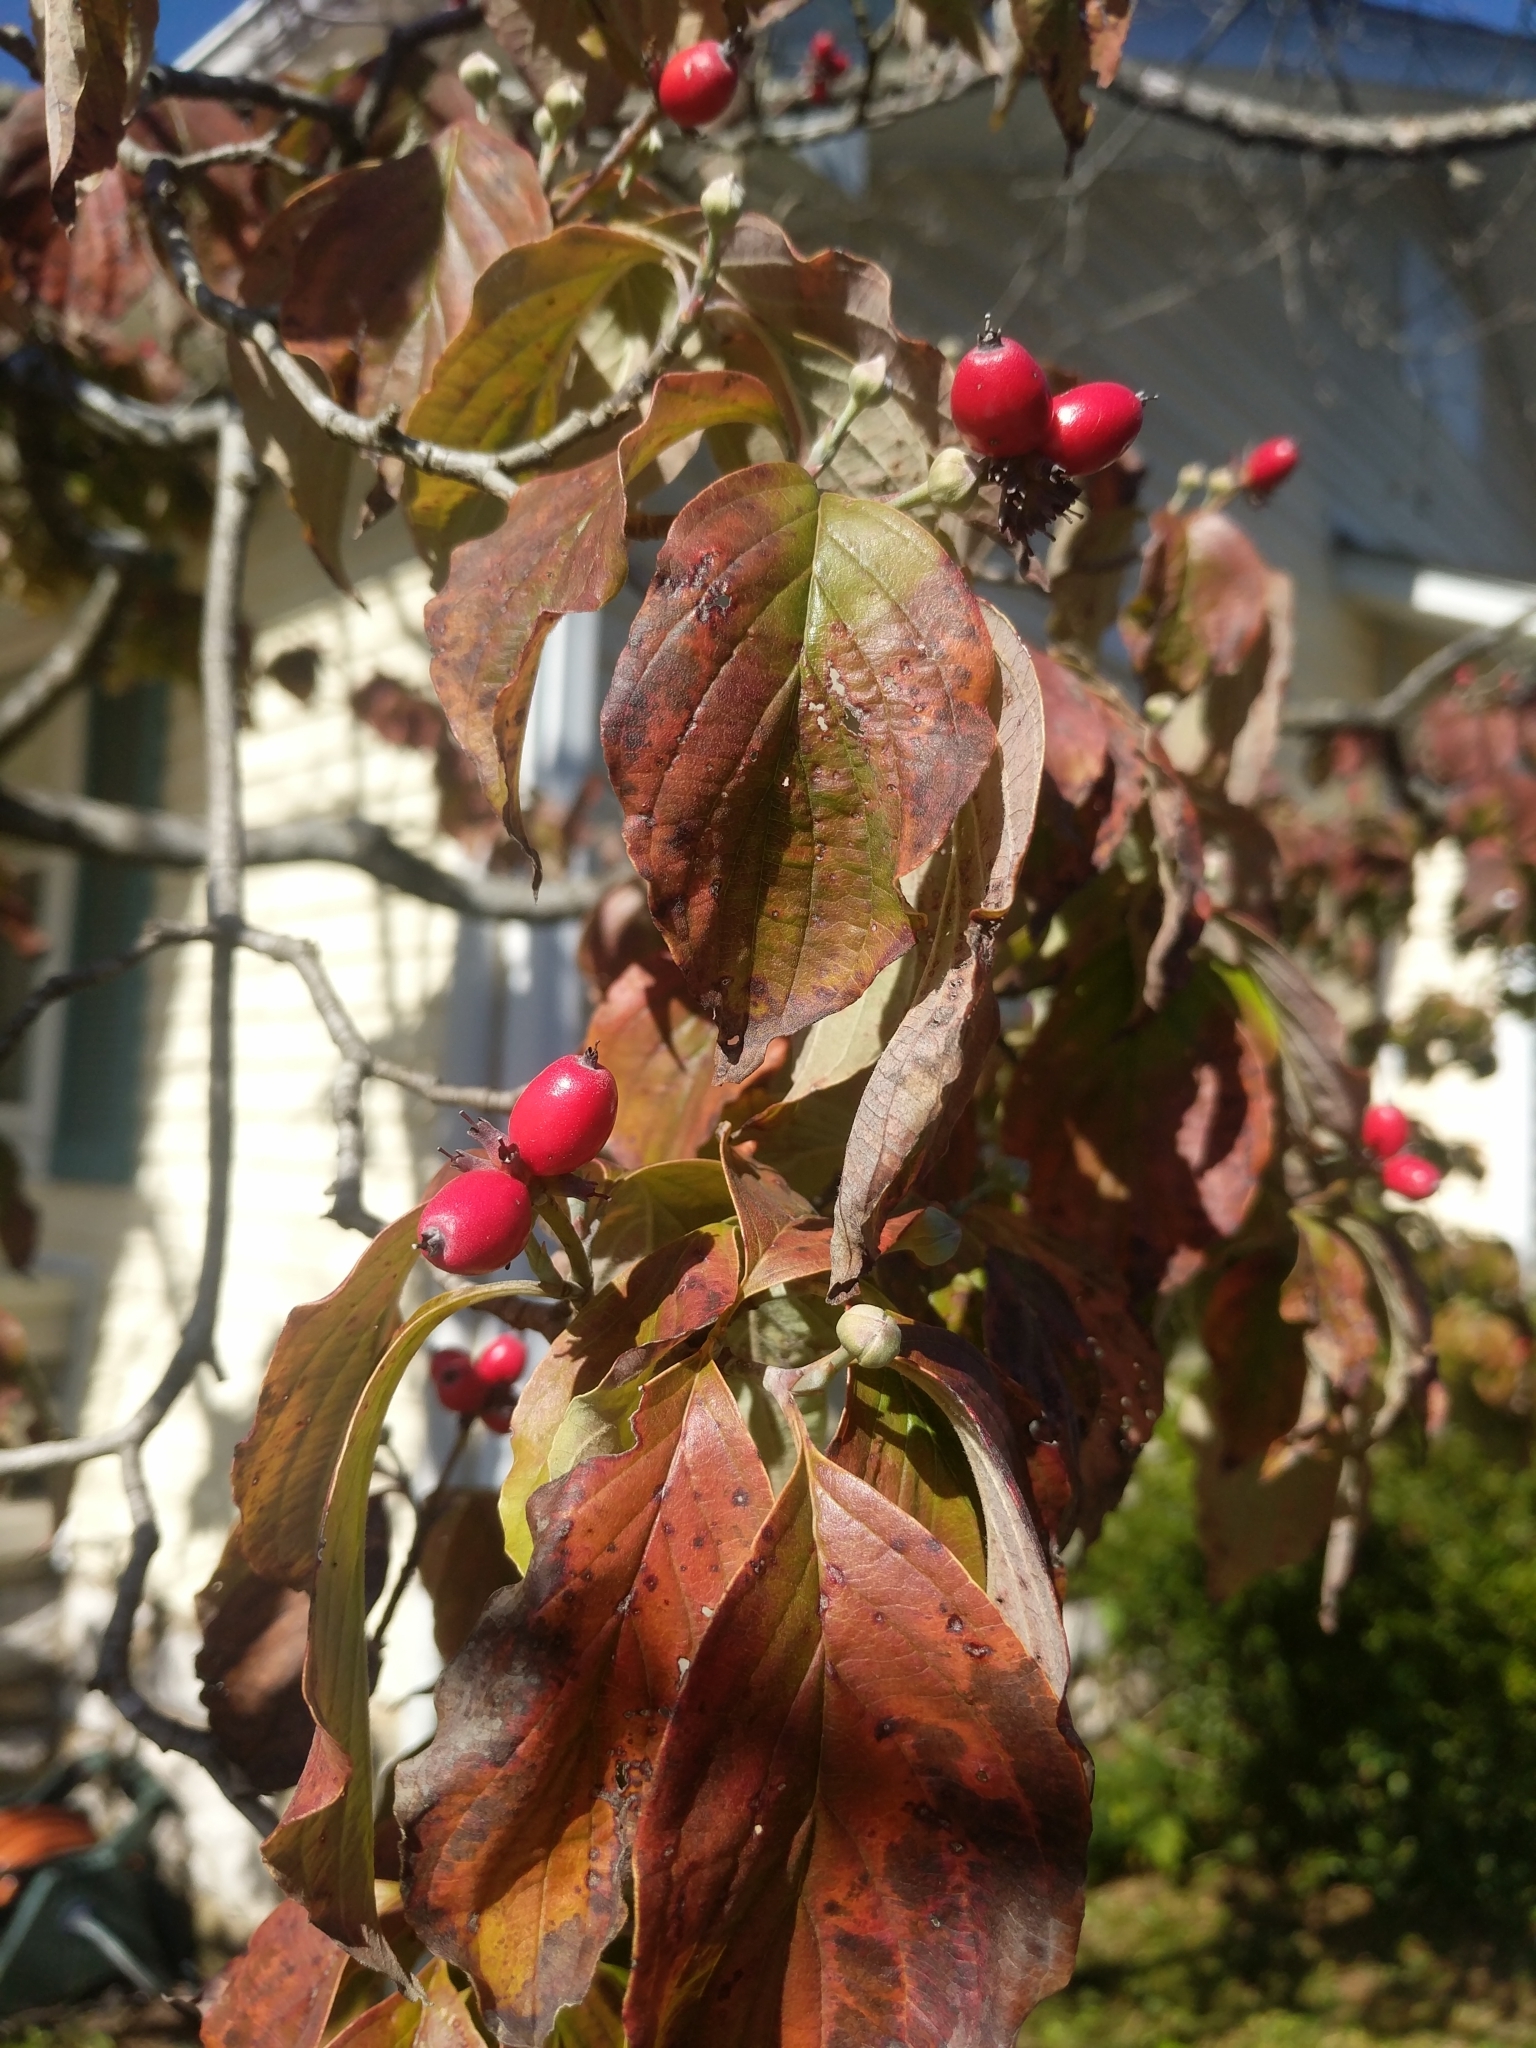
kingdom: Plantae
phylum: Tracheophyta
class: Magnoliopsida
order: Cornales
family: Cornaceae
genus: Cornus
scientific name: Cornus florida
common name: Flowering dogwood
